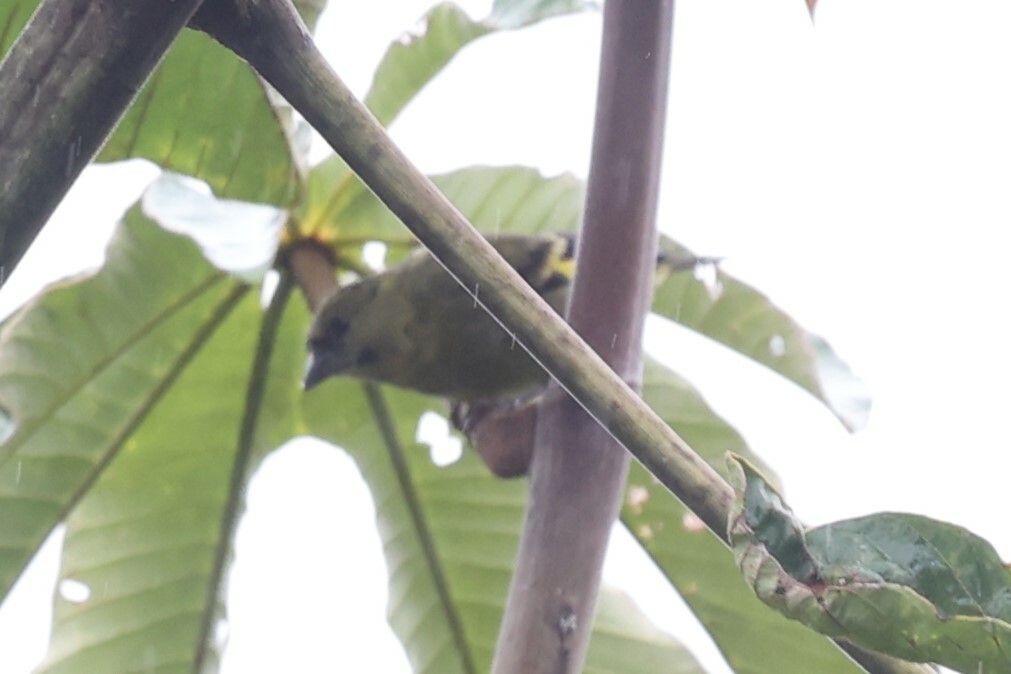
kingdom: Animalia
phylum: Chordata
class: Aves
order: Passeriformes
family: Fringillidae
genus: Spinus
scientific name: Spinus olivaceus
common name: Olivaceous siskin
